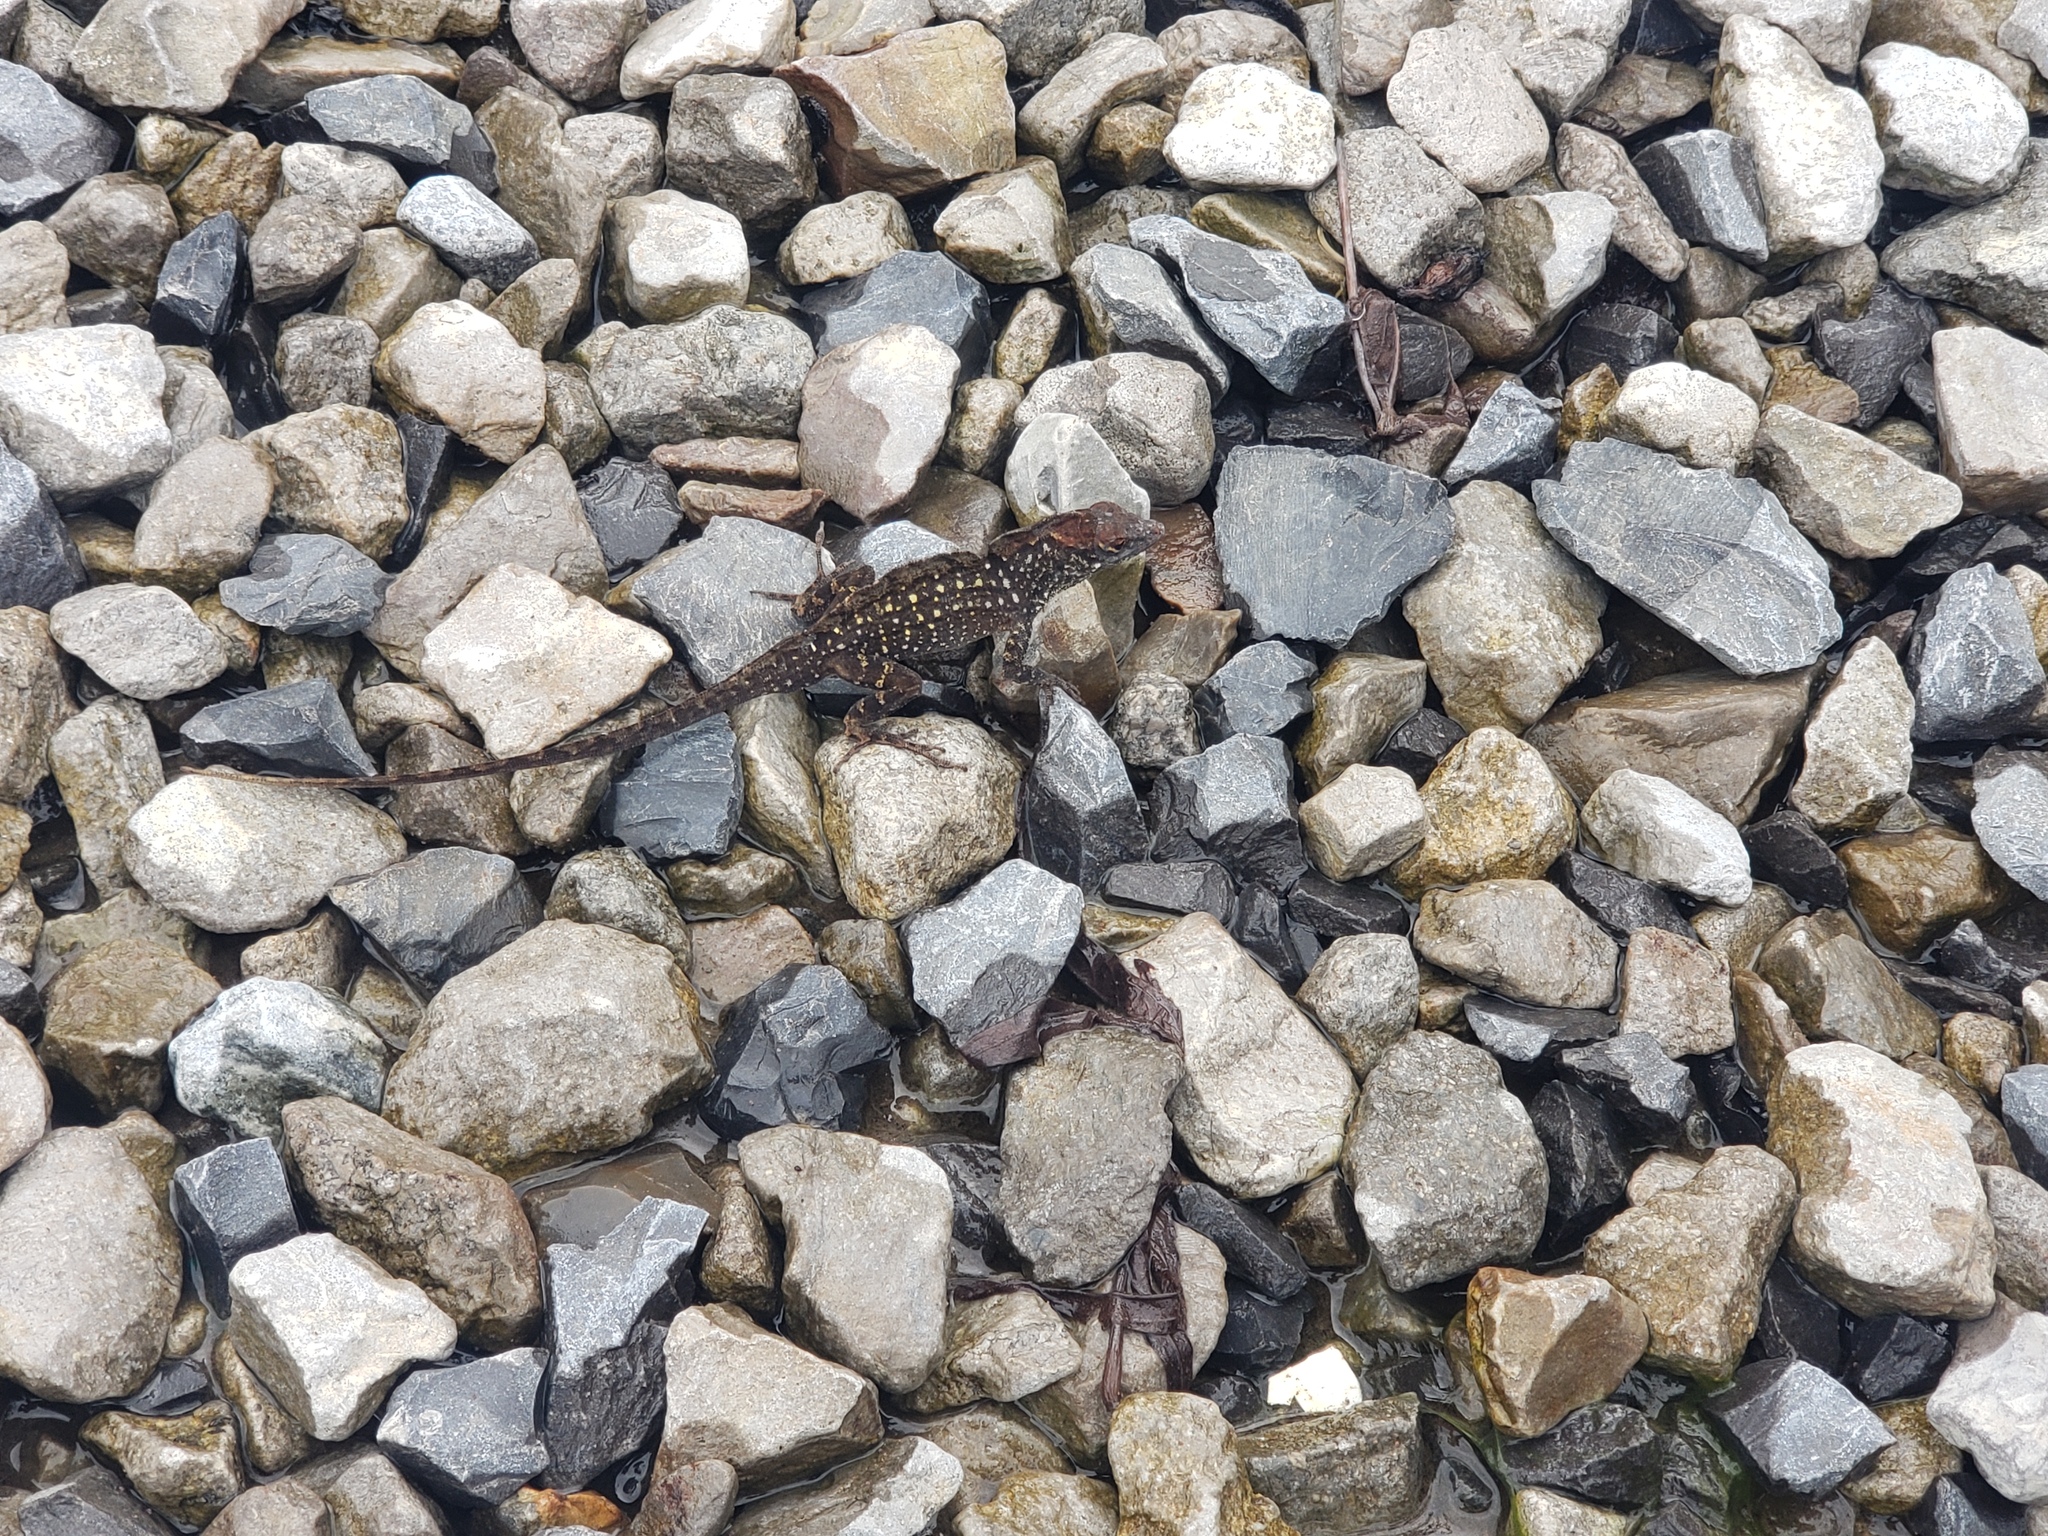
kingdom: Animalia
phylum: Chordata
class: Squamata
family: Dactyloidae
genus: Anolis
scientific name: Anolis sagrei
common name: Brown anole
